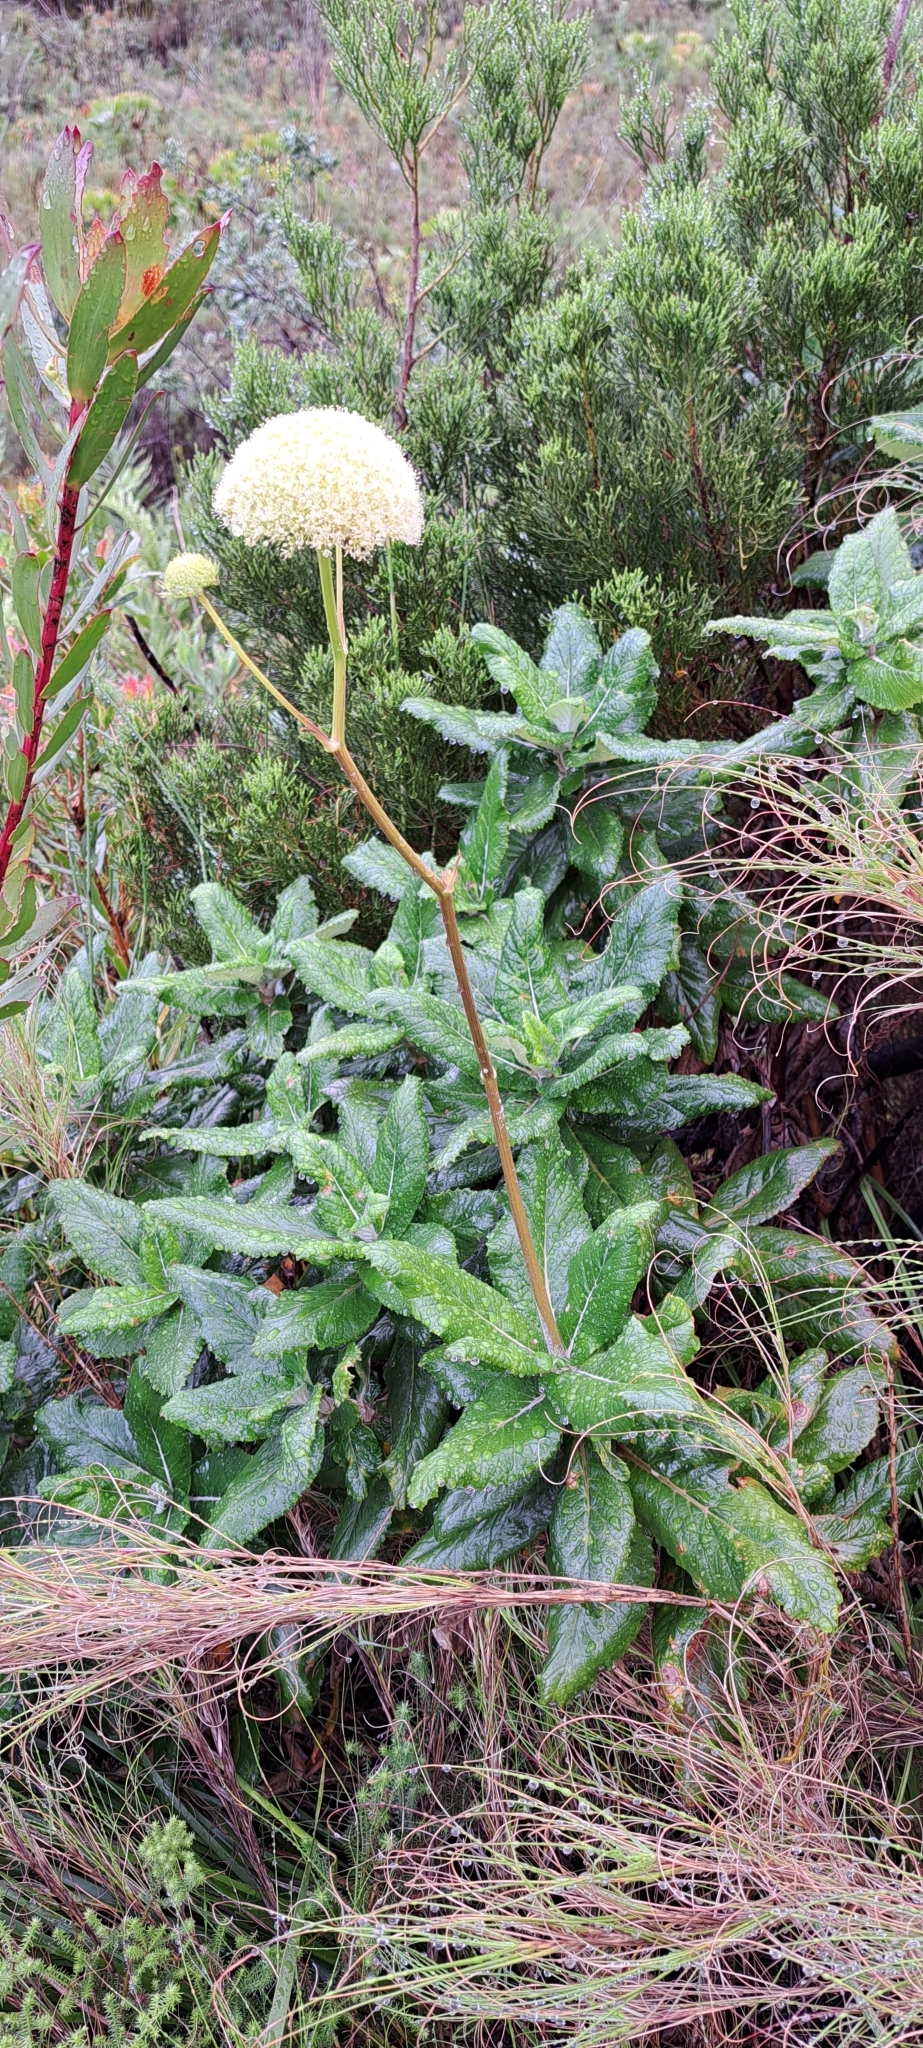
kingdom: Plantae
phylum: Tracheophyta
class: Magnoliopsida
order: Apiales
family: Apiaceae
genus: Hermas
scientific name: Hermas villosa
